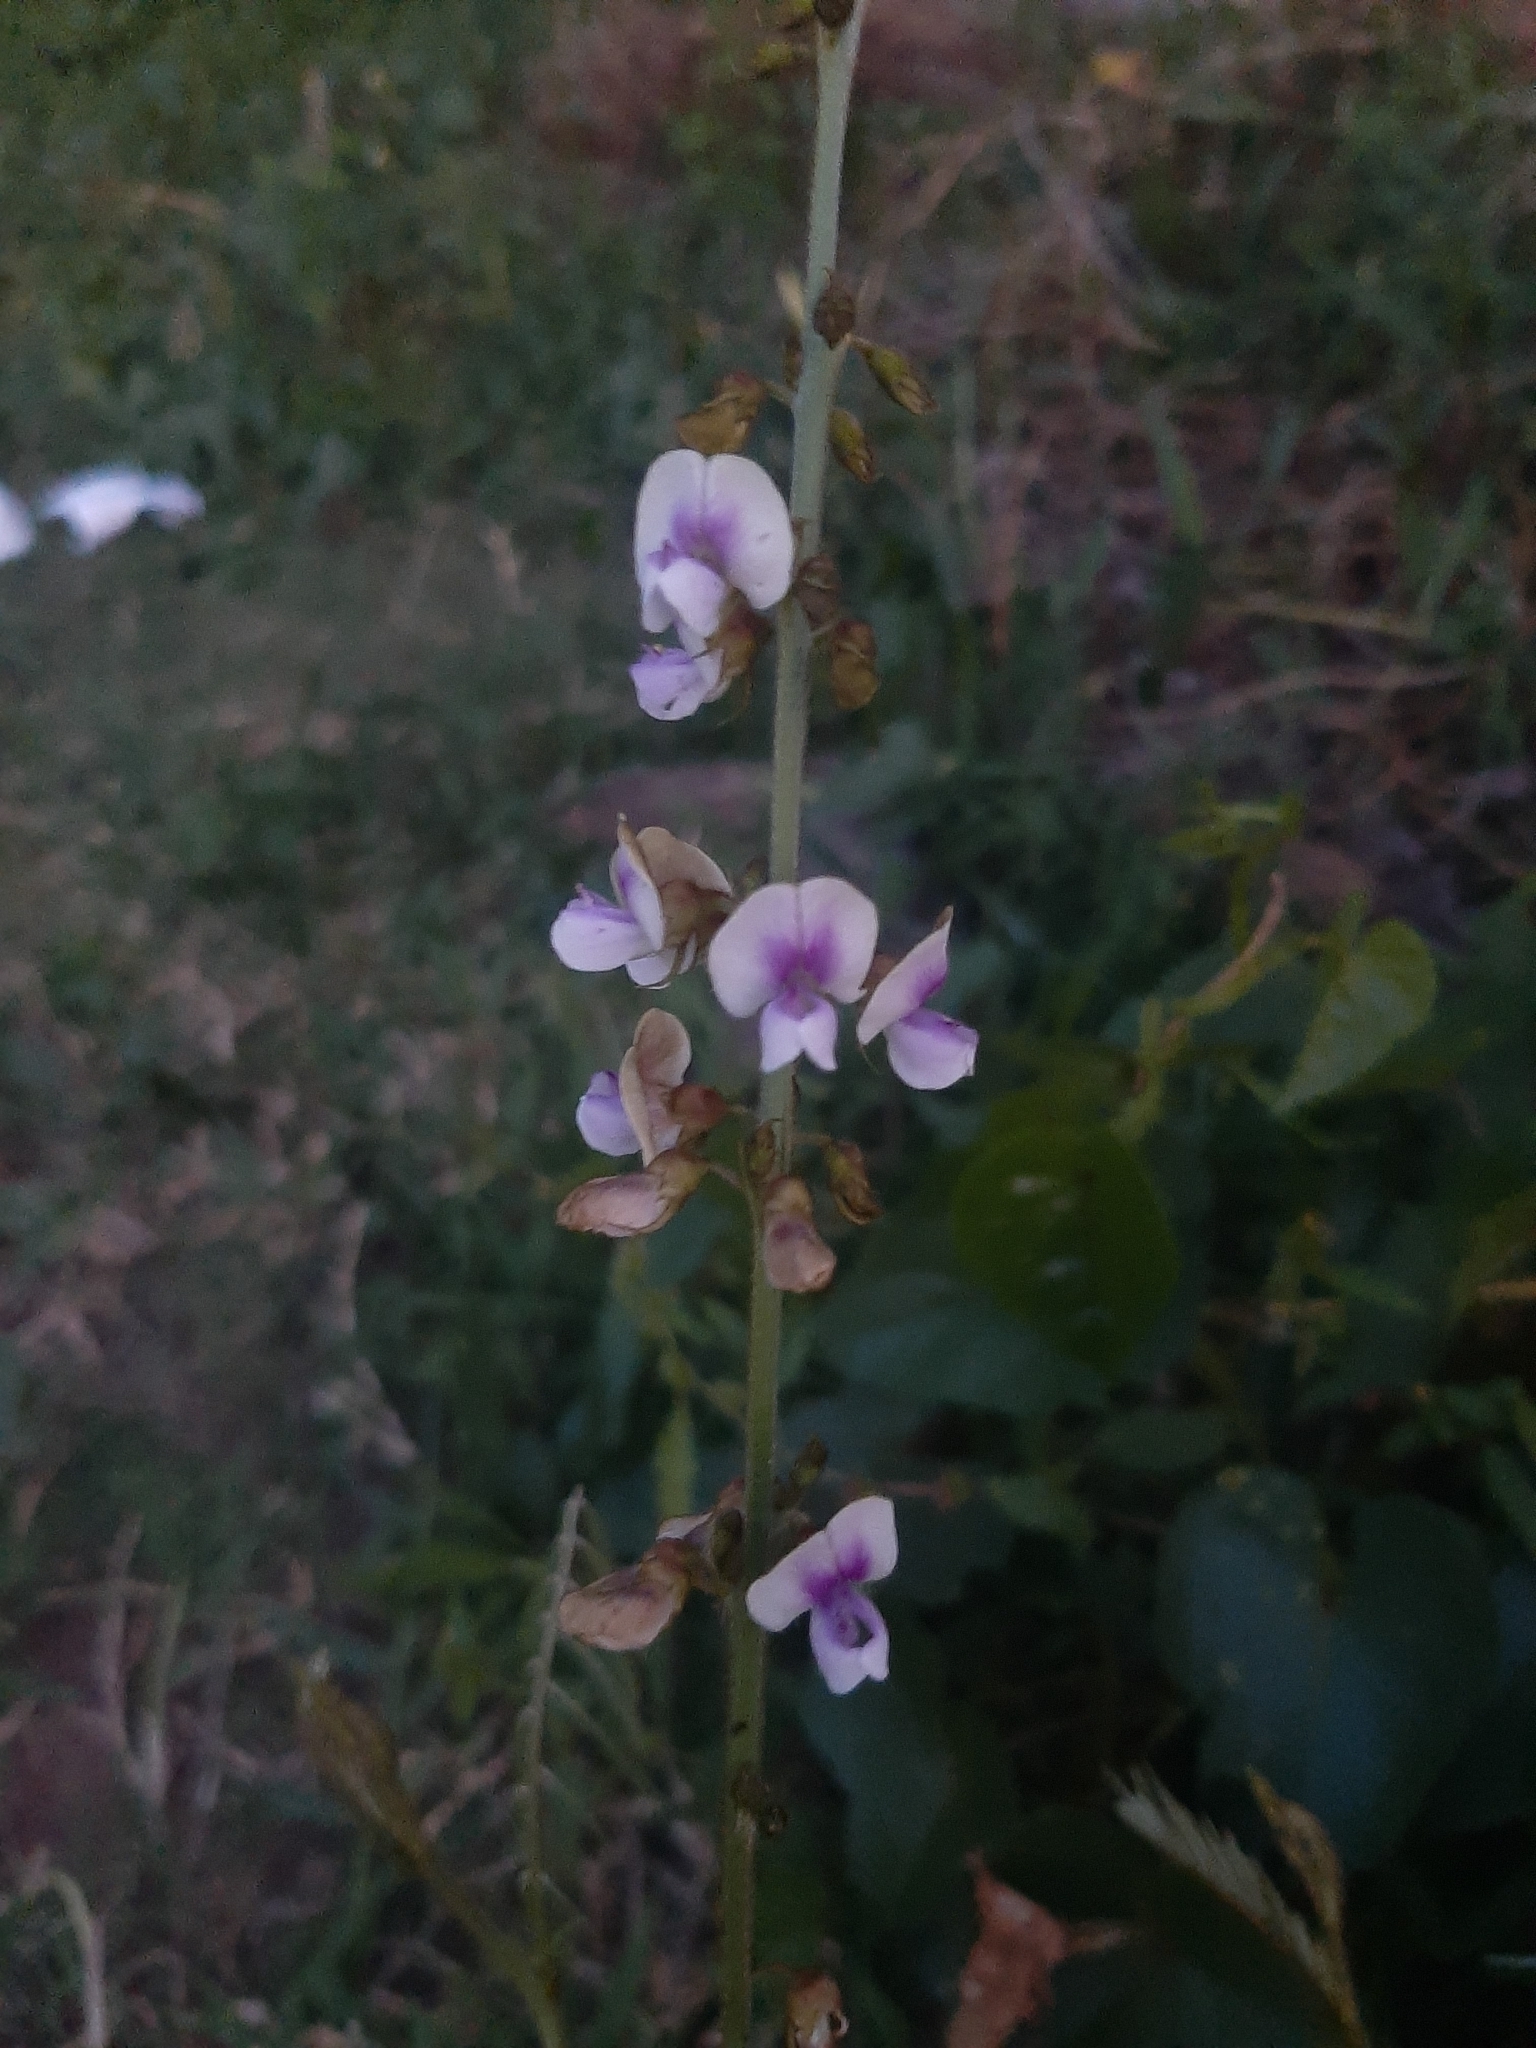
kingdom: Plantae
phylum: Tracheophyta
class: Magnoliopsida
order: Fabales
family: Fabaceae
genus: Tephrosia
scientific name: Tephrosia noctiflora
